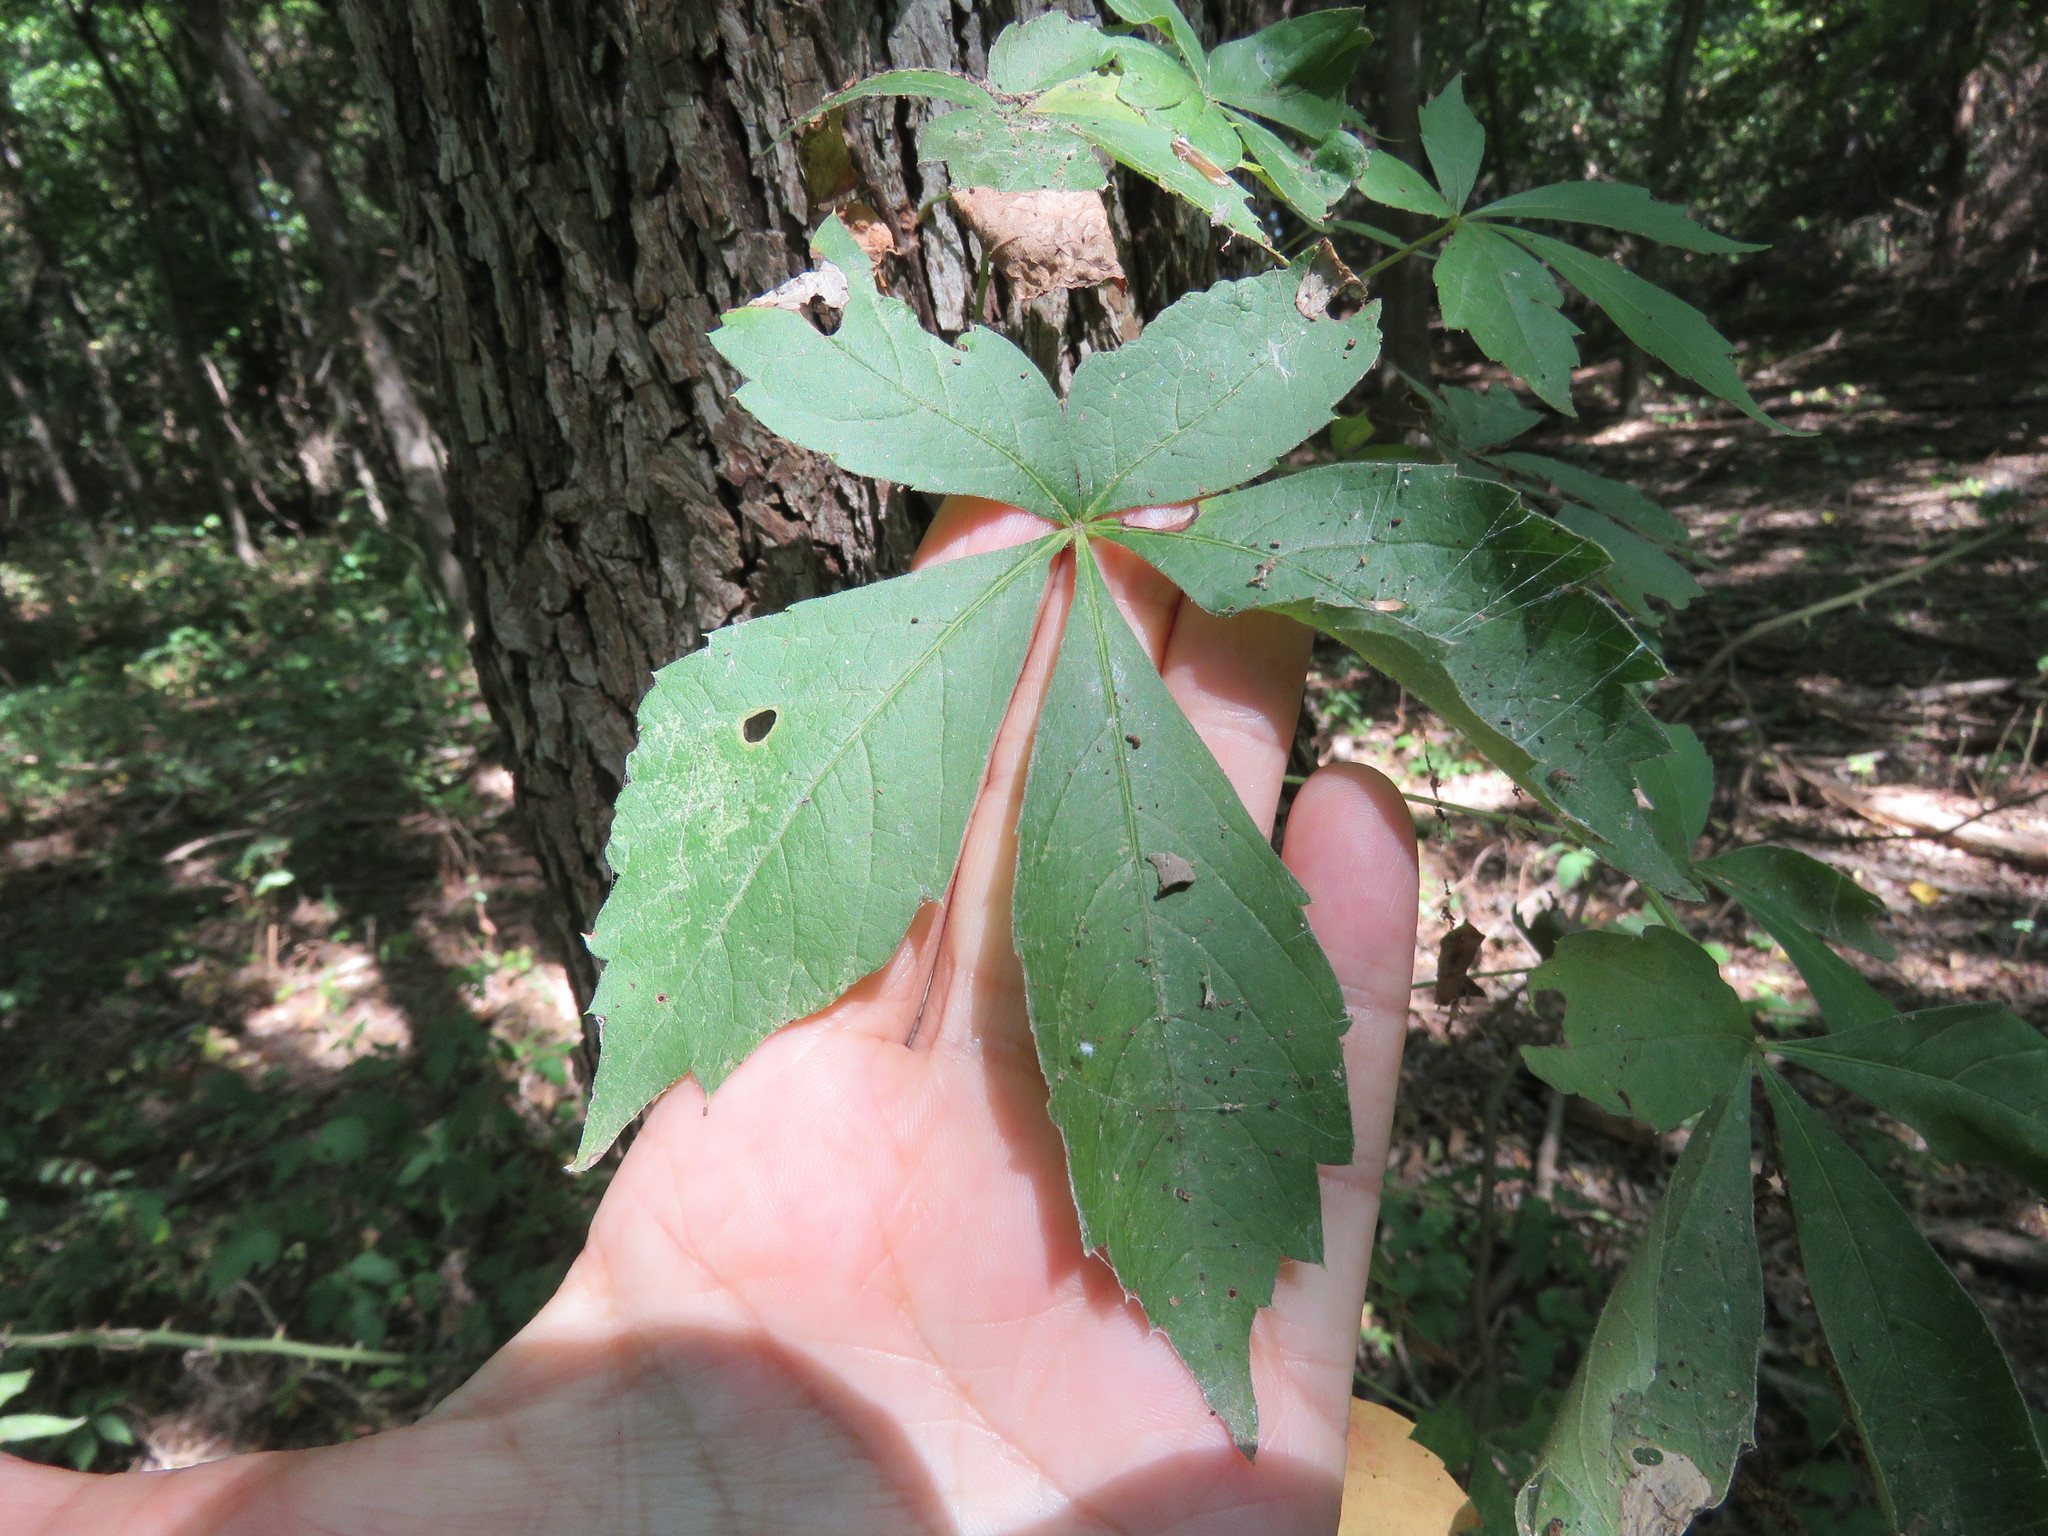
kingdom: Plantae
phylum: Tracheophyta
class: Magnoliopsida
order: Vitales
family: Vitaceae
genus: Parthenocissus
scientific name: Parthenocissus quinquefolia
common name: Virginia-creeper
